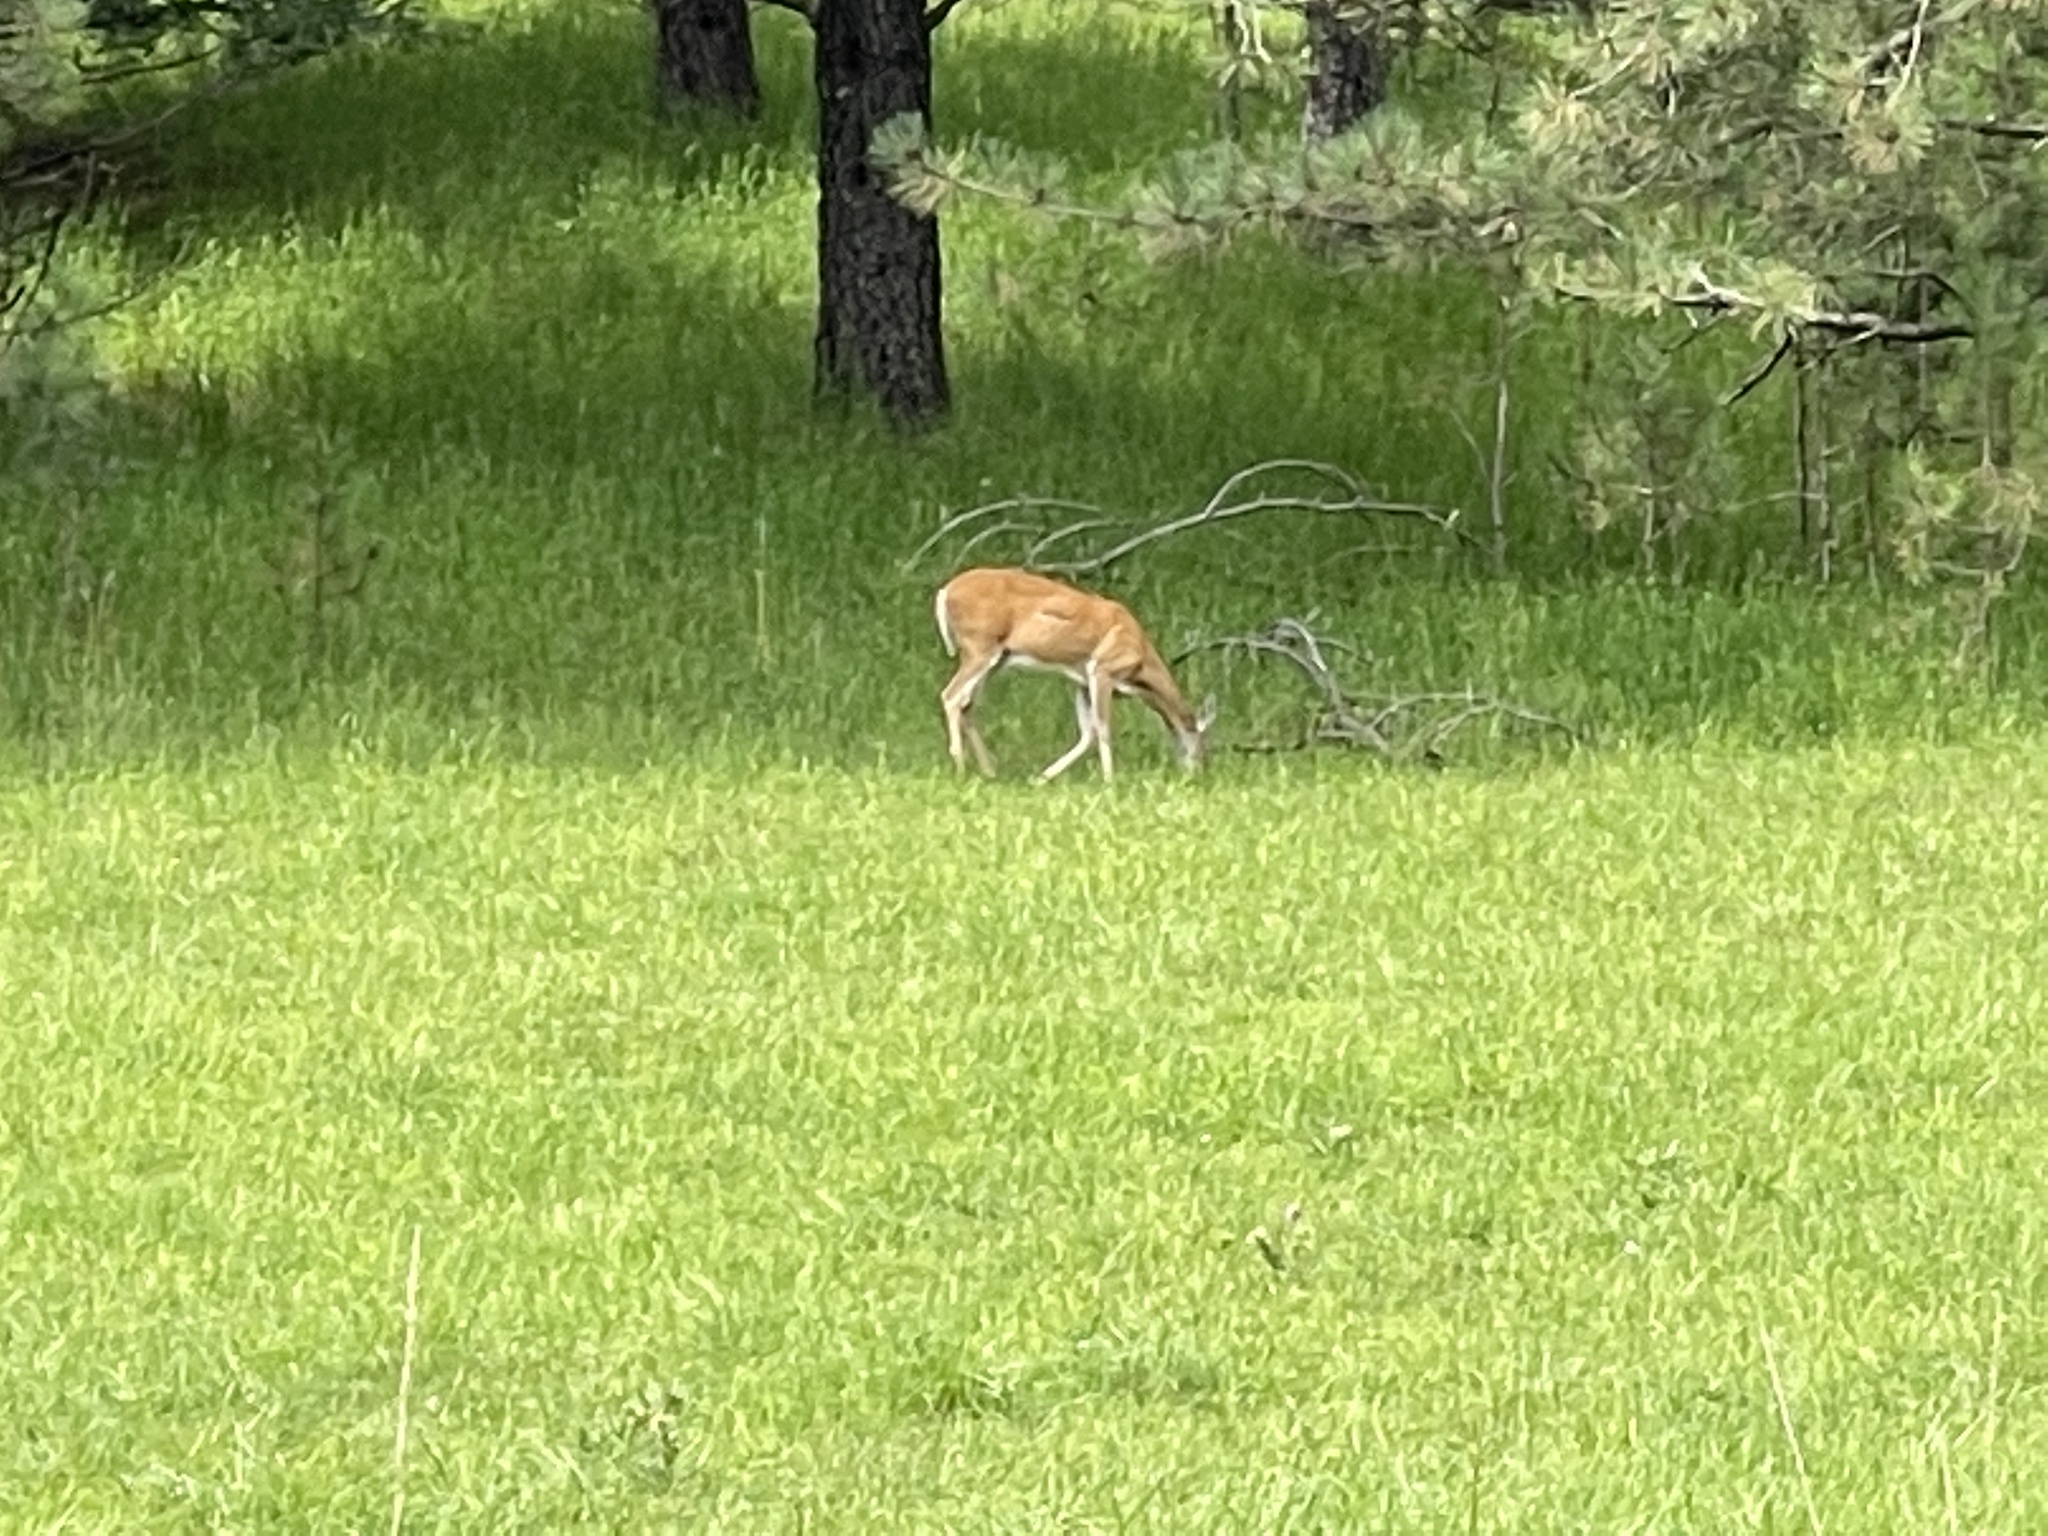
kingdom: Animalia
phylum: Chordata
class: Mammalia
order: Artiodactyla
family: Cervidae
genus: Odocoileus
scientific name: Odocoileus virginianus
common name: White-tailed deer
